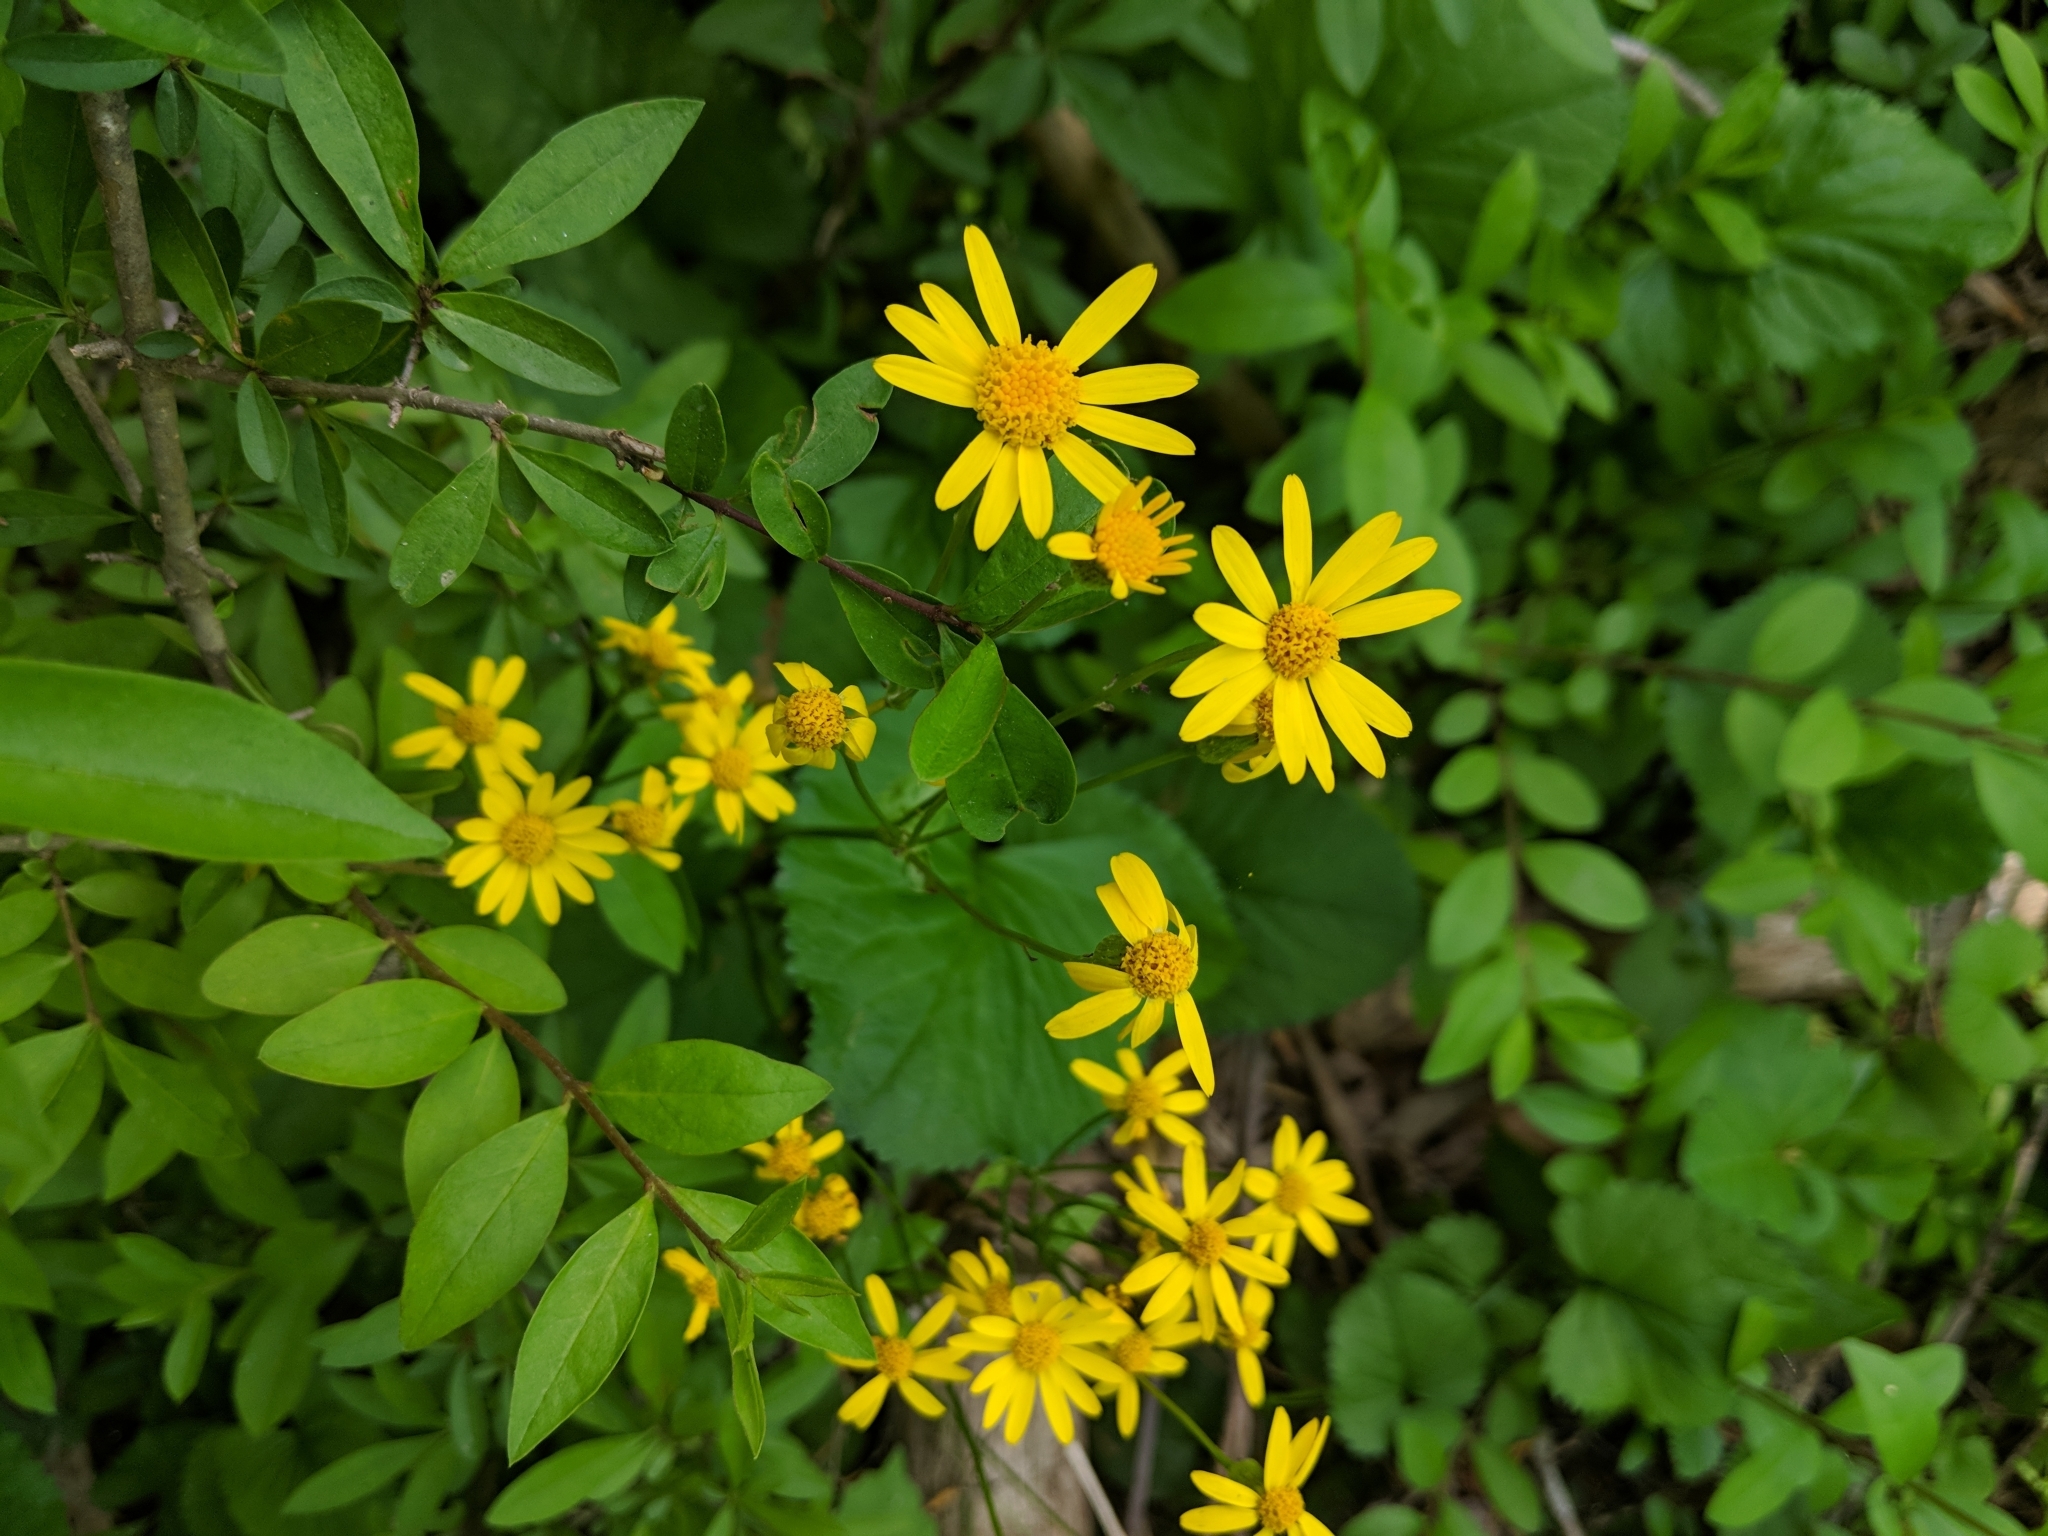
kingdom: Plantae
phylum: Tracheophyta
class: Magnoliopsida
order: Asterales
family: Asteraceae
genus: Packera
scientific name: Packera aurea
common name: Golden groundsel
